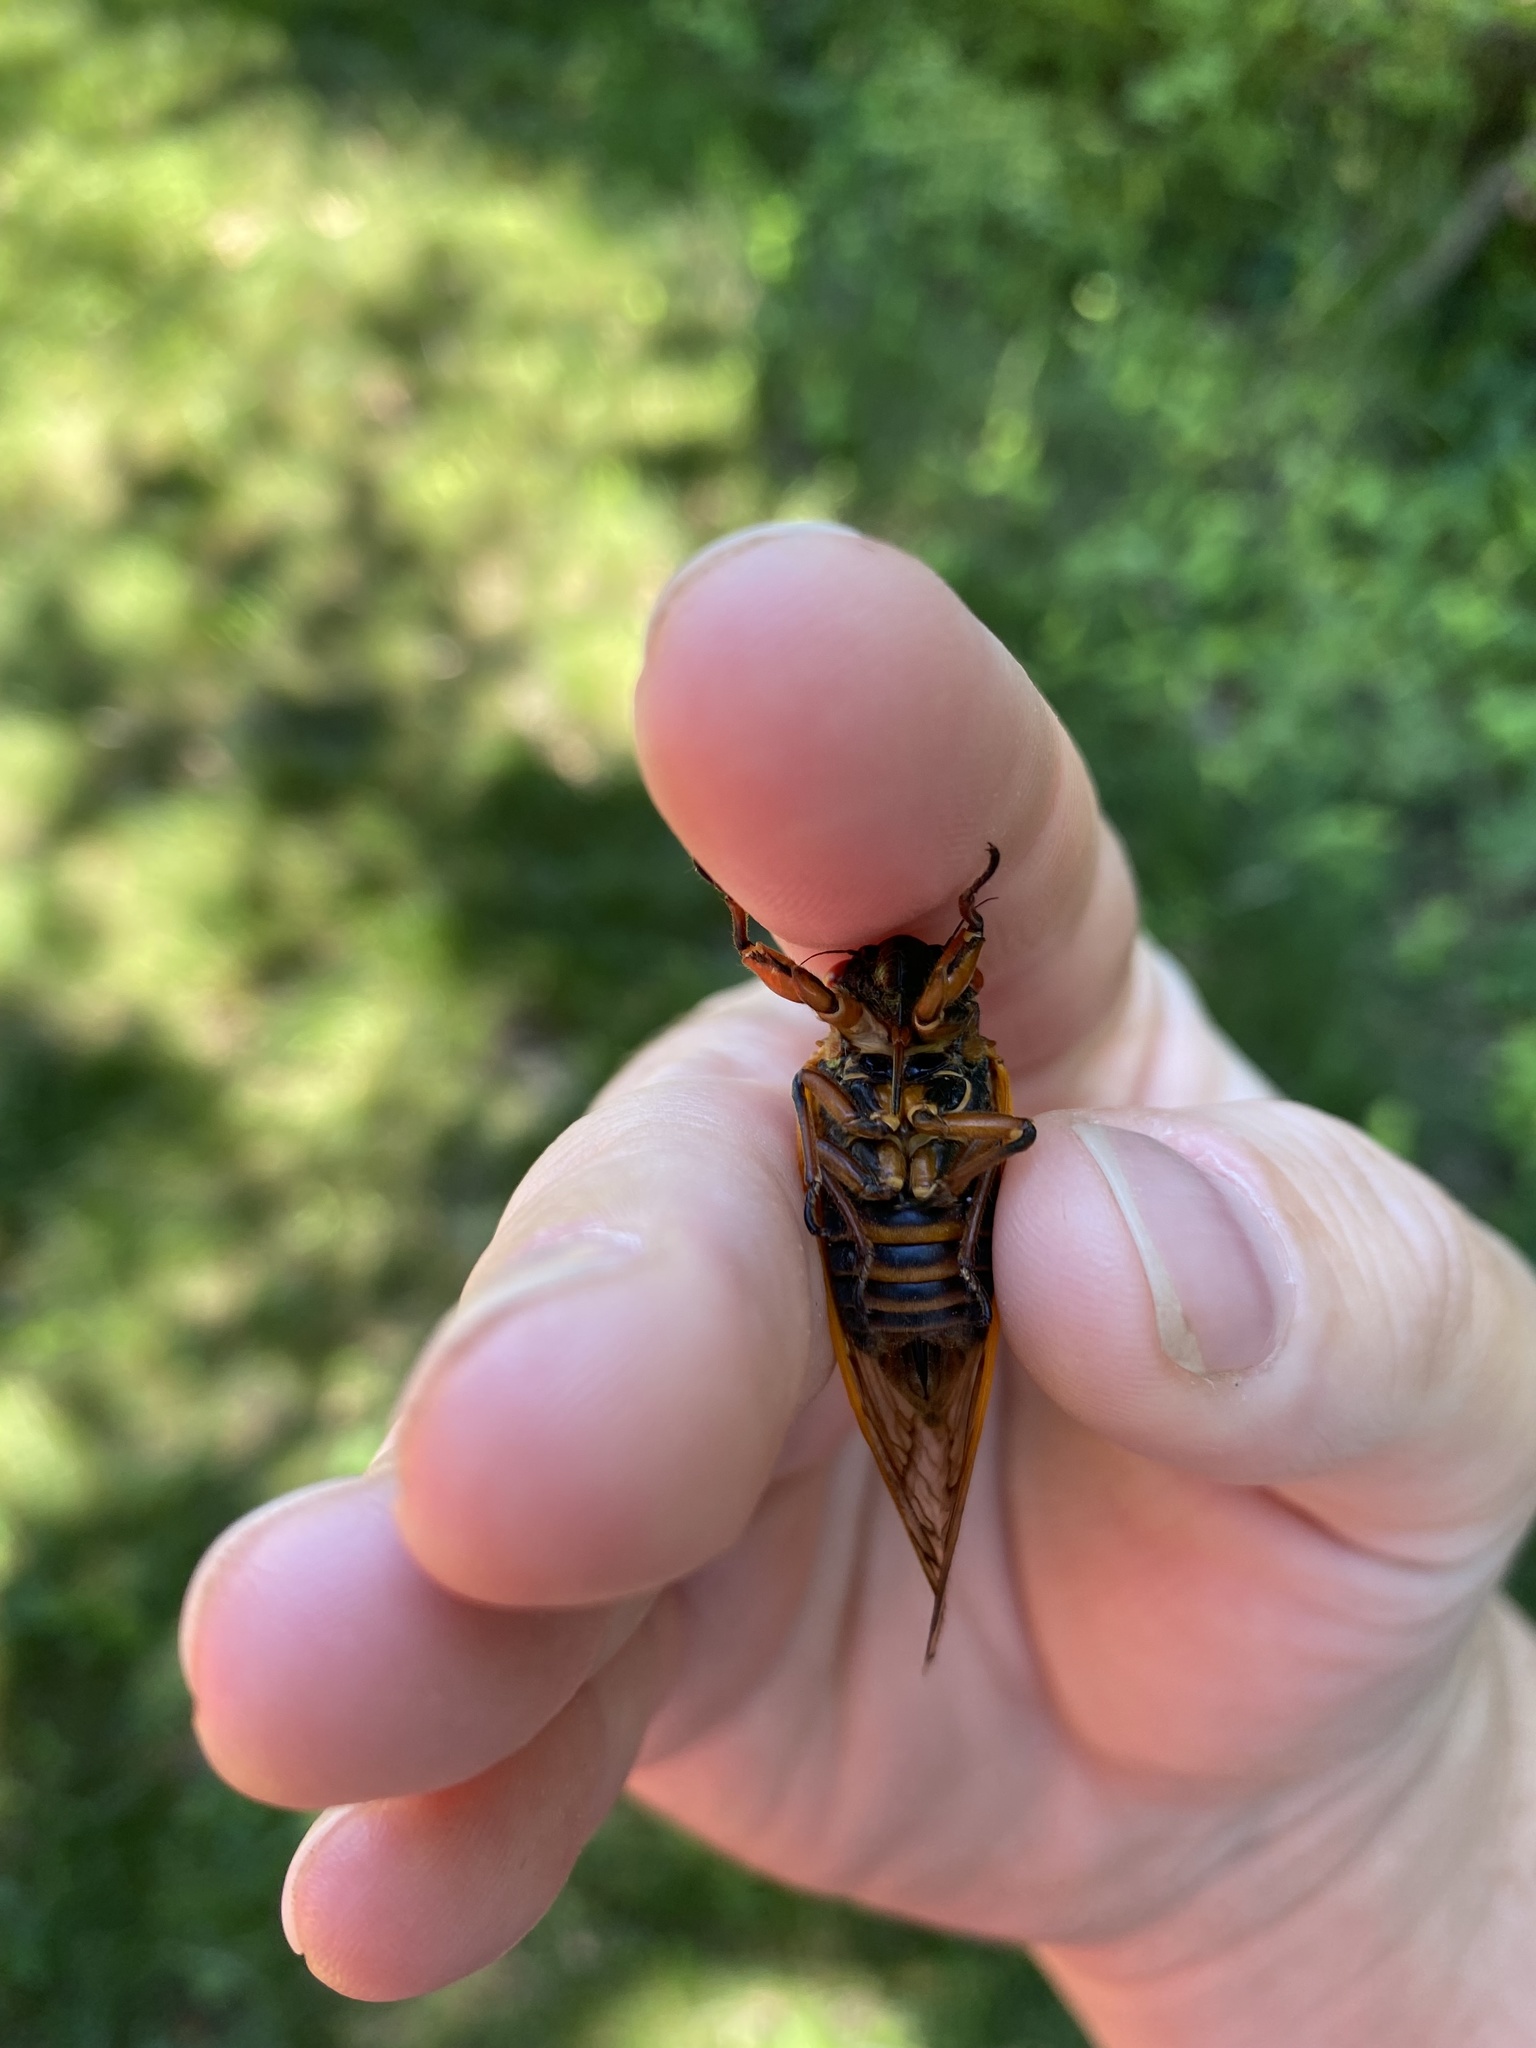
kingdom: Animalia
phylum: Arthropoda
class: Insecta
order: Hemiptera
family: Cicadidae
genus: Magicicada
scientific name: Magicicada septendecim
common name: Periodical cicada
